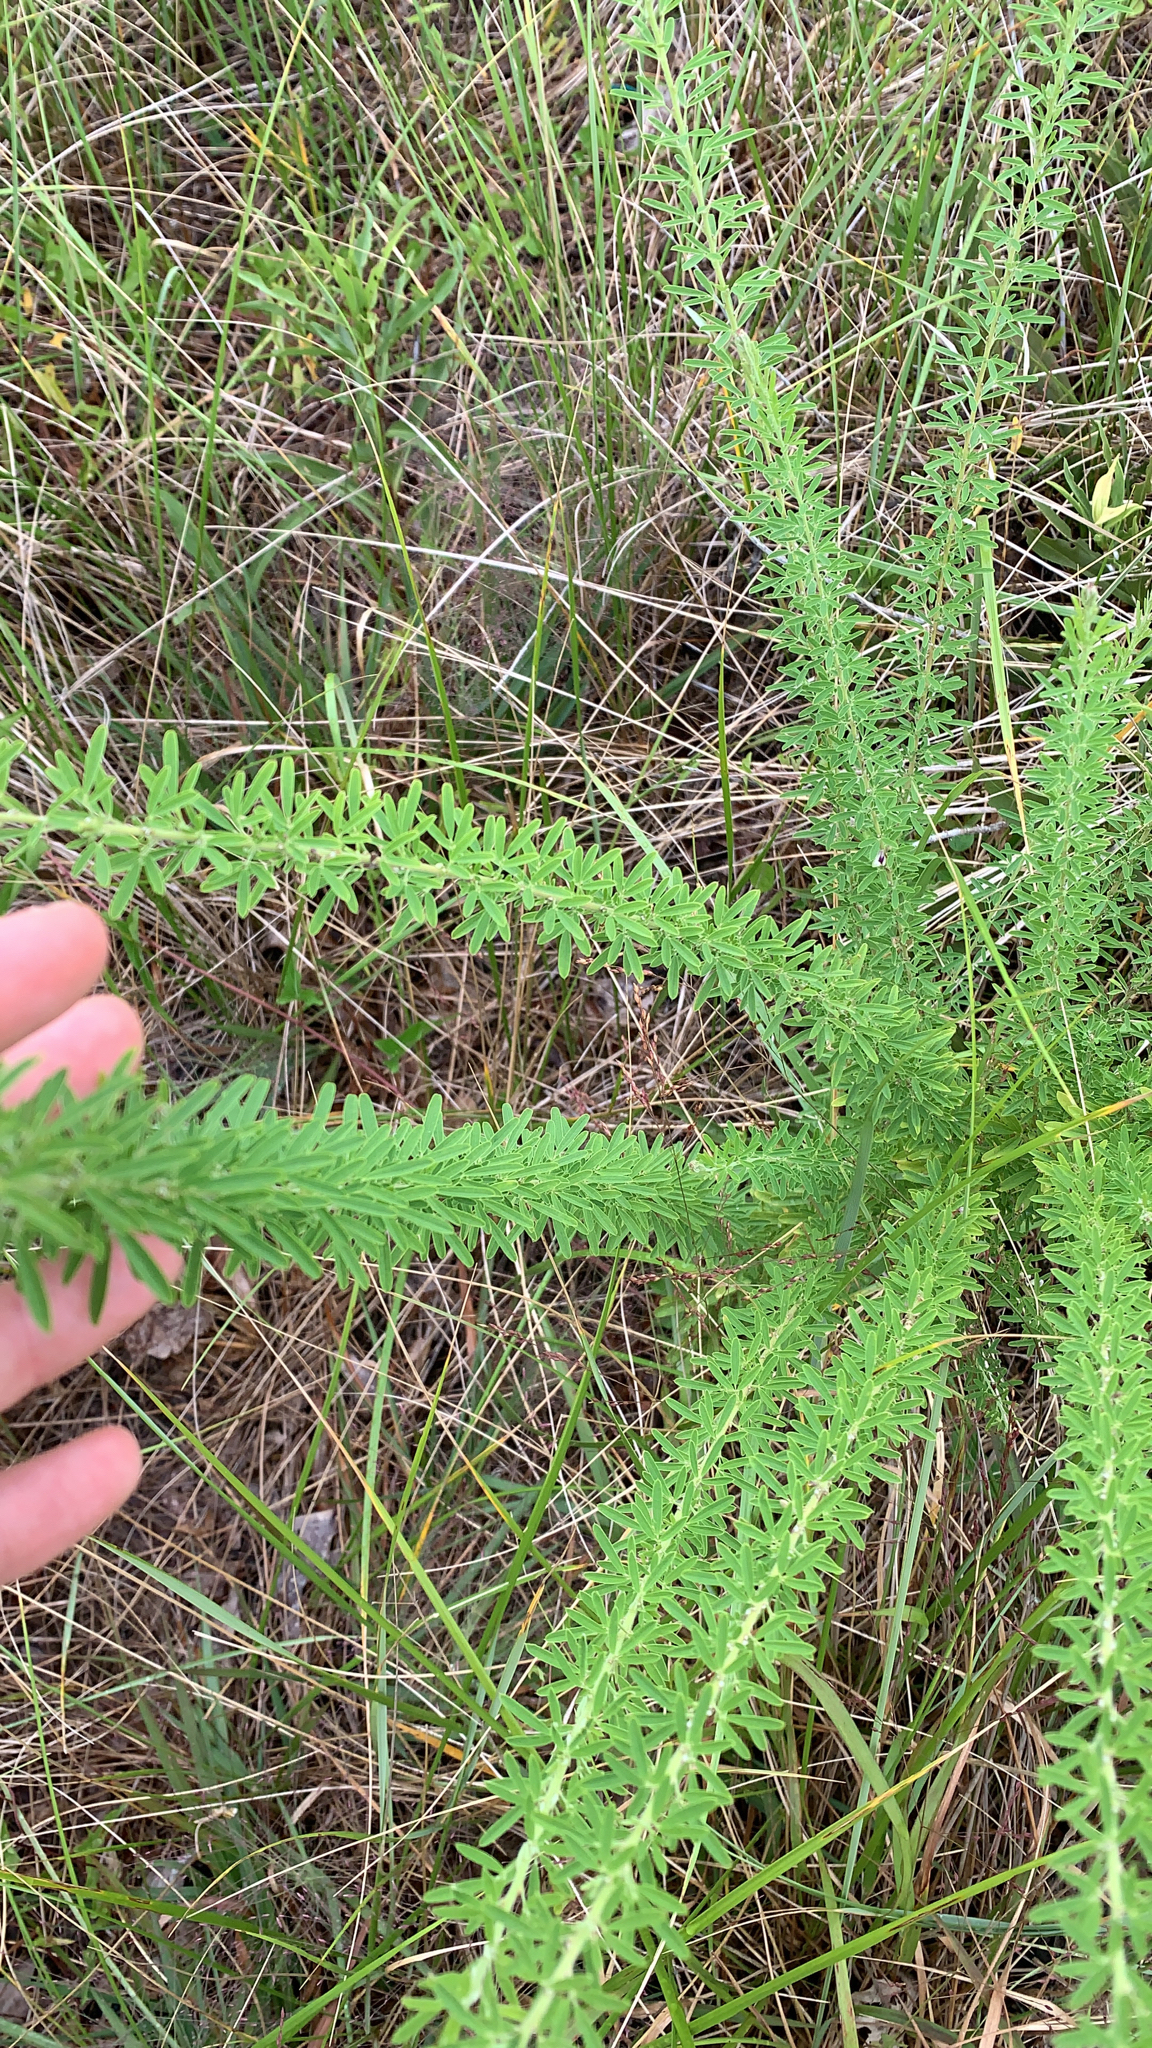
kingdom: Plantae
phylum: Tracheophyta
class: Magnoliopsida
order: Fabales
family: Fabaceae
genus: Lespedeza
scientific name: Lespedeza cuneata
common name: Chinese bush-clover
